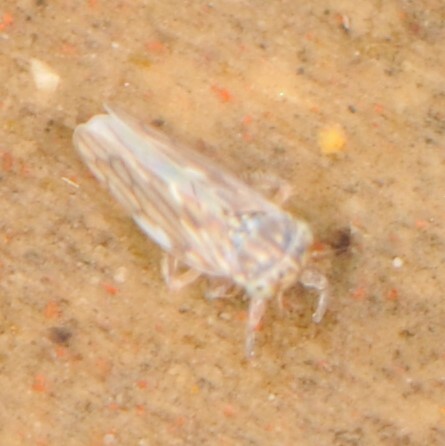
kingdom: Animalia
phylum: Arthropoda
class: Insecta
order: Hemiptera
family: Cicadellidae
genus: Ceratagallia
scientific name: Ceratagallia
